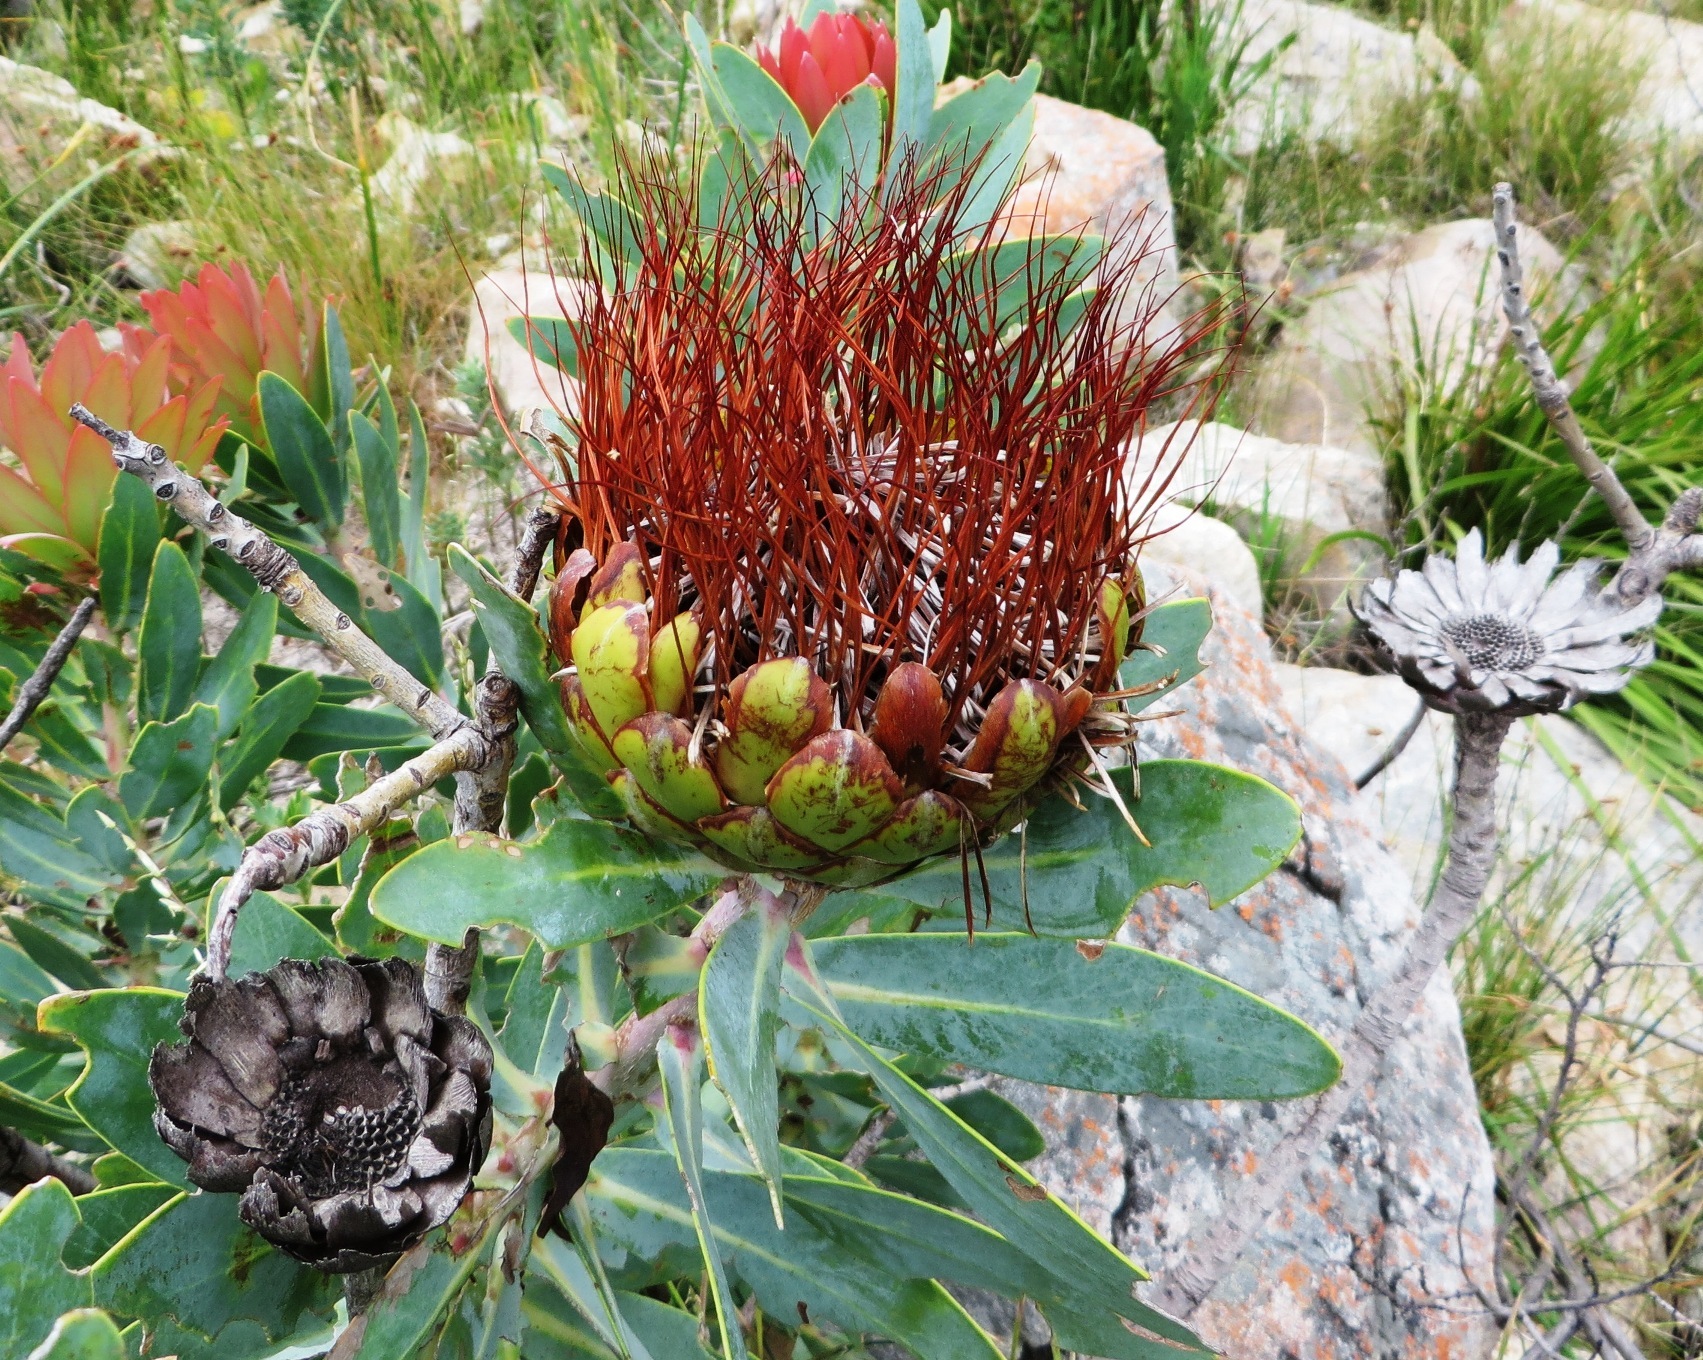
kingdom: Plantae
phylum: Tracheophyta
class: Magnoliopsida
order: Proteales
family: Proteaceae
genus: Protea
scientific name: Protea nitida
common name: Tree protea
